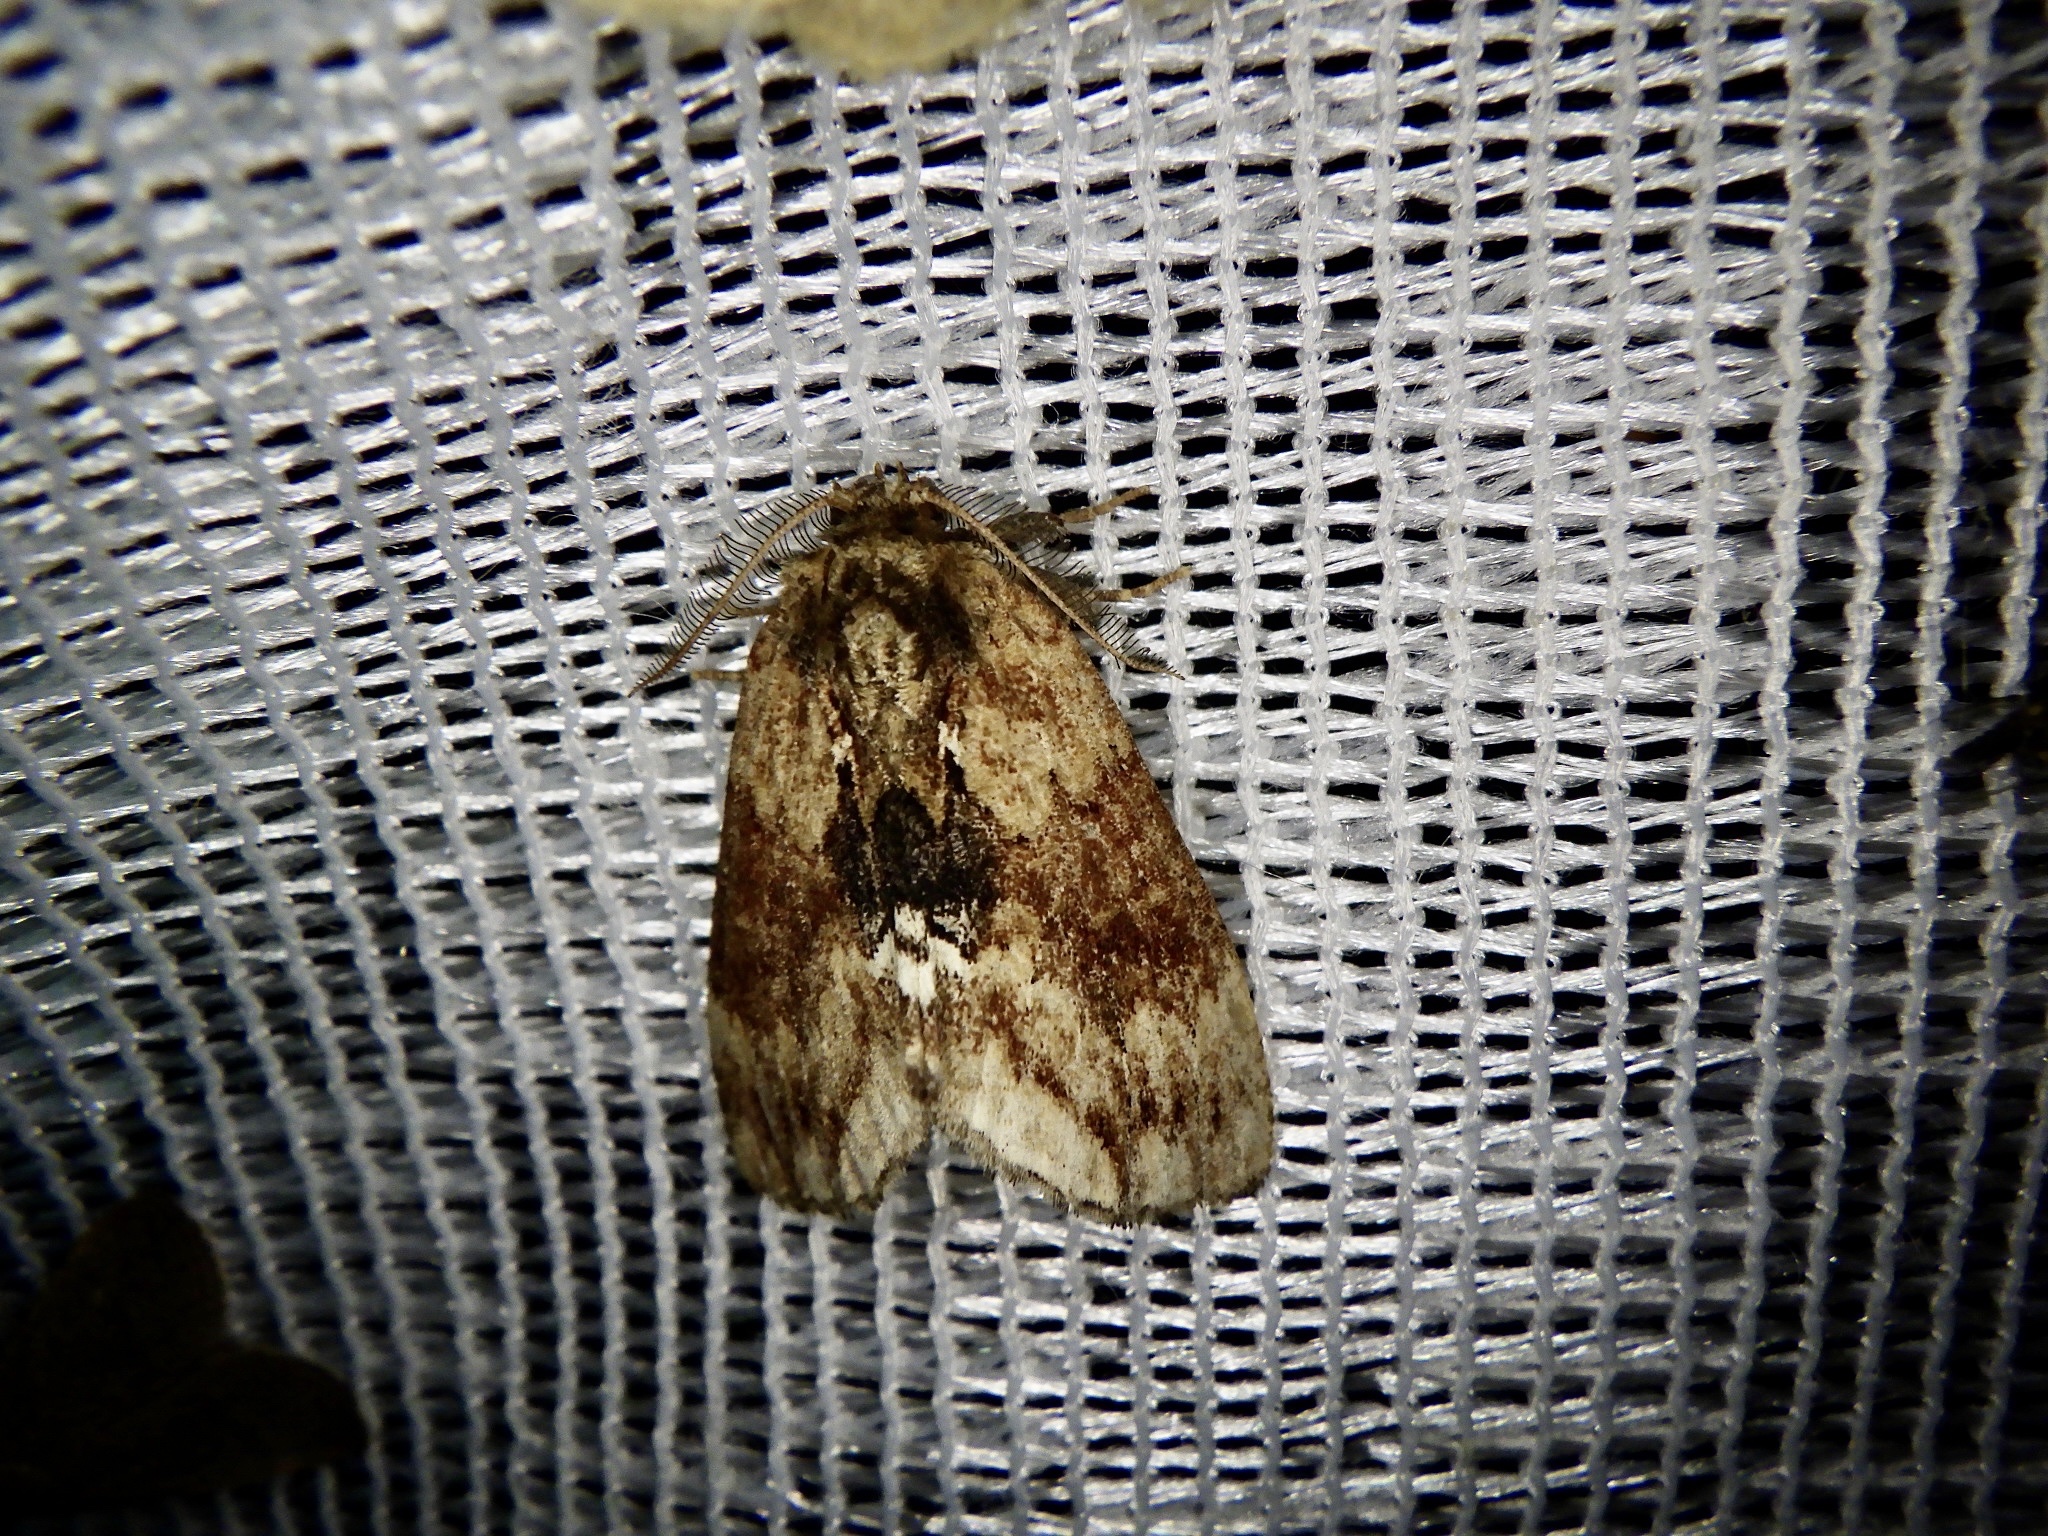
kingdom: Animalia
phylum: Arthropoda
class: Insecta
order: Lepidoptera
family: Notodontidae
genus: Lophontosia
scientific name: Lophontosia
